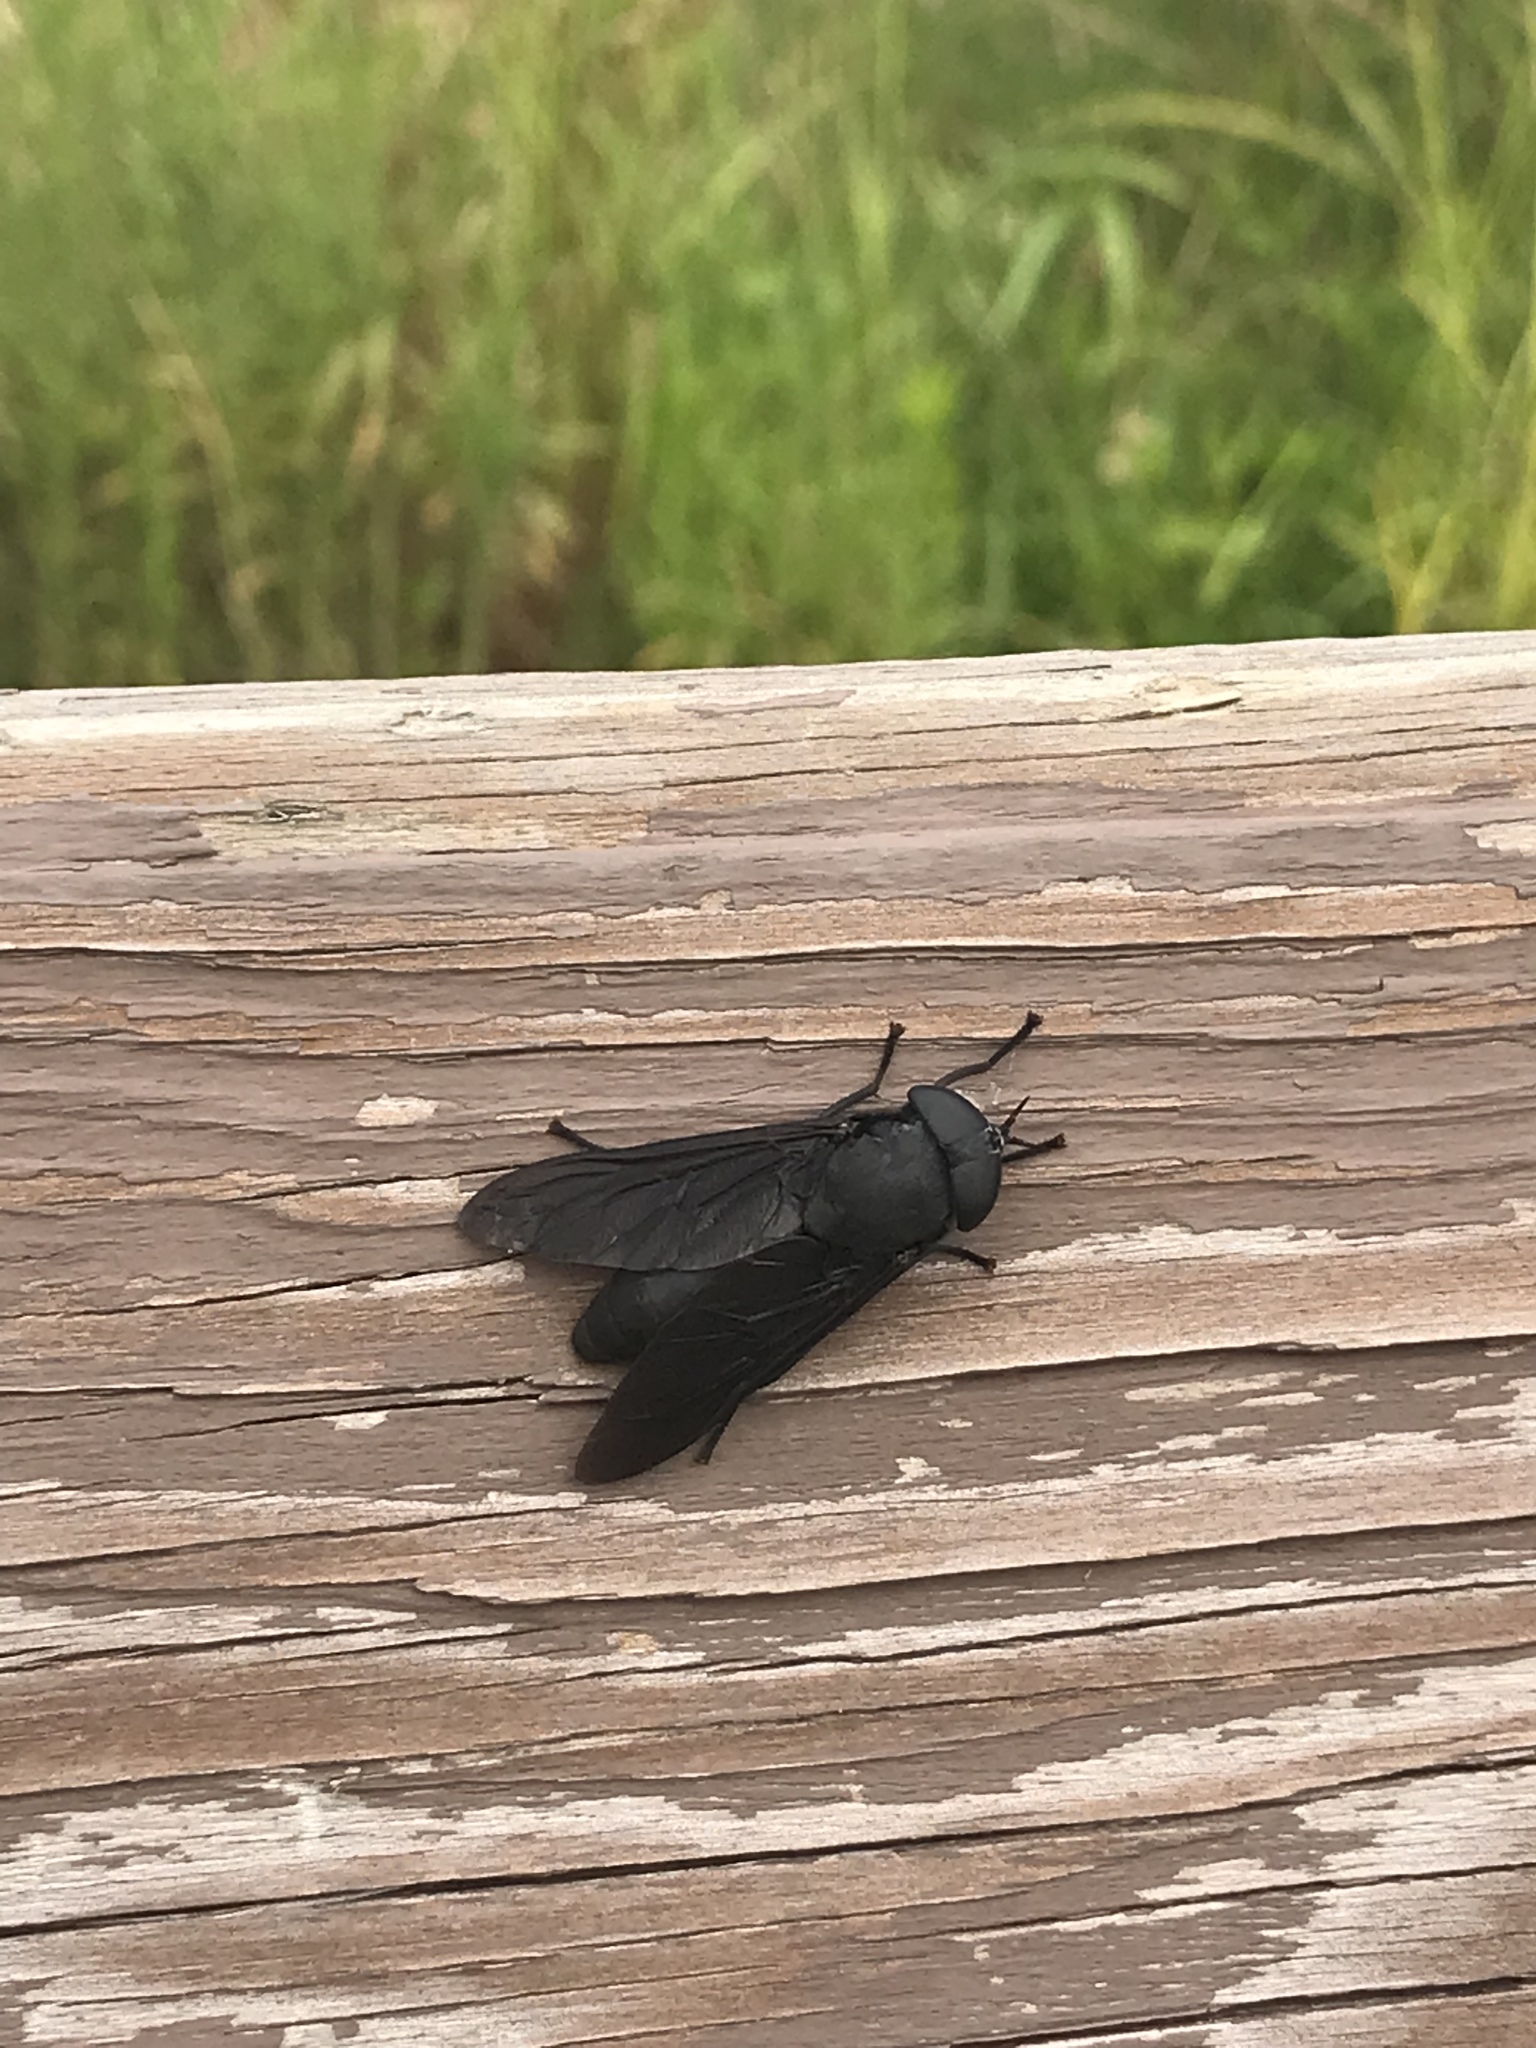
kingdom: Animalia
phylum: Arthropoda
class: Insecta
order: Diptera
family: Tabanidae
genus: Tabanus
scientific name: Tabanus atratus
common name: Black horse fly
